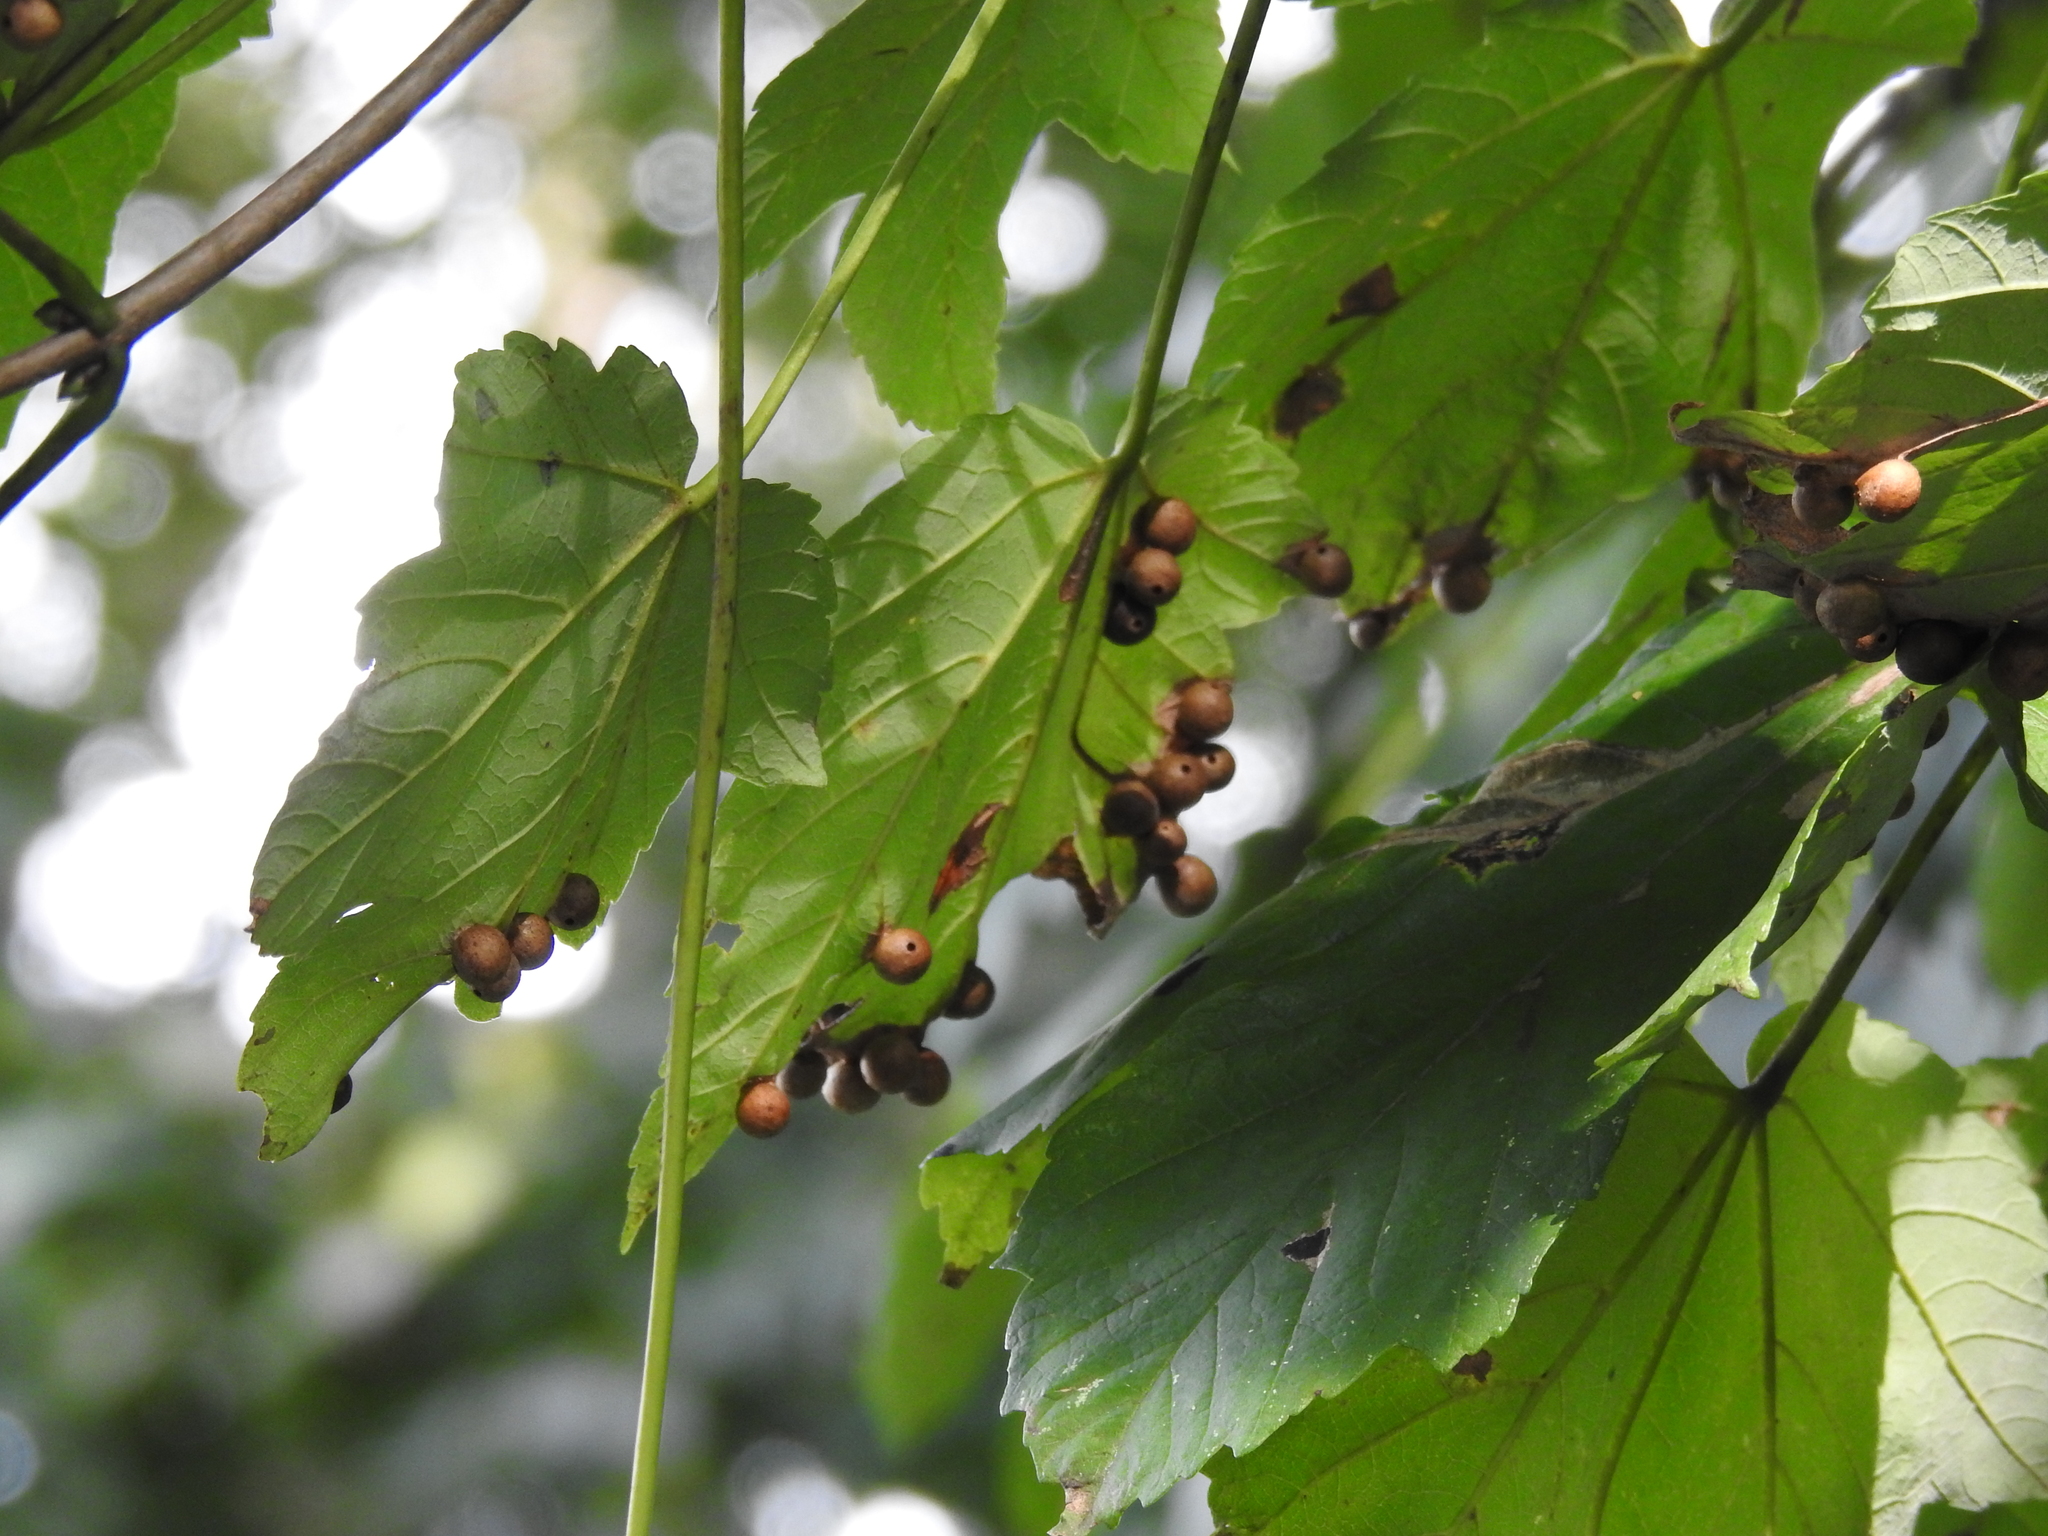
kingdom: Animalia
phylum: Arthropoda
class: Insecta
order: Hymenoptera
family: Cynipidae
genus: Pediaspis
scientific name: Pediaspis aceris
